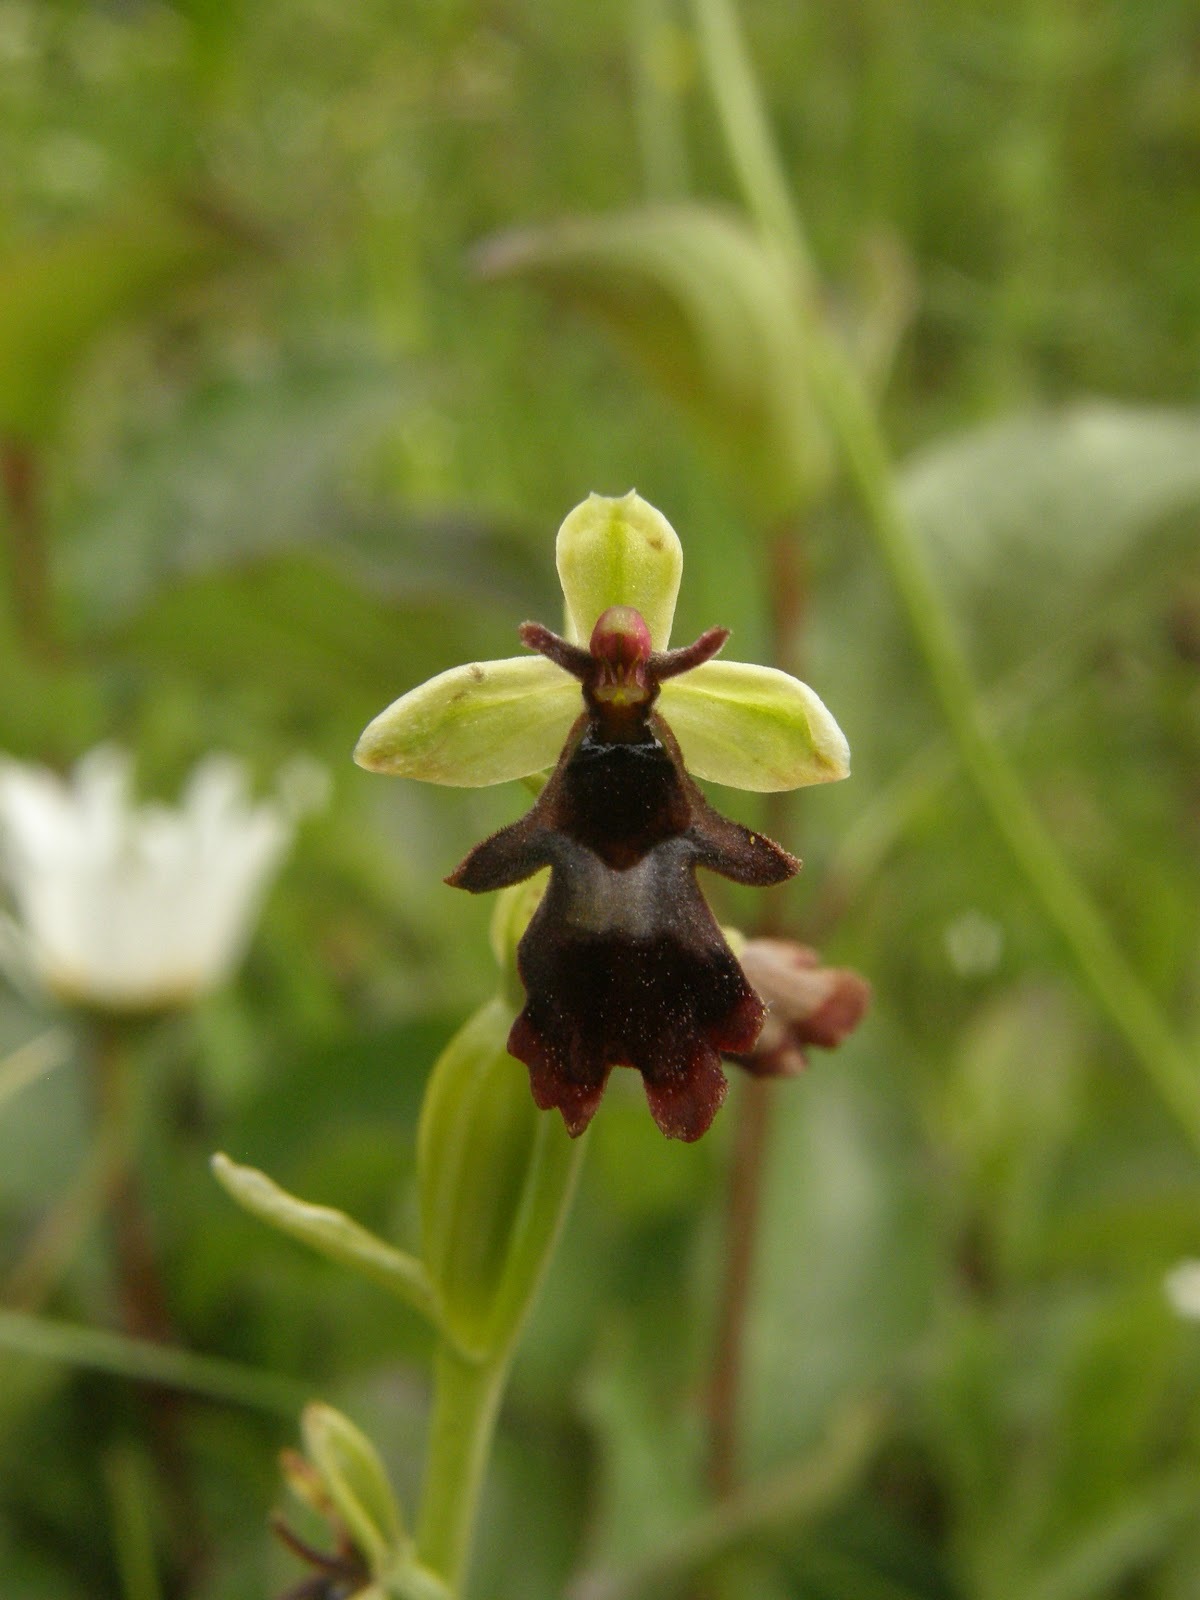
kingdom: Plantae
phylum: Tracheophyta
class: Liliopsida
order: Asparagales
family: Orchidaceae
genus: Ophrys
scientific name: Ophrys insectifera
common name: Fly orchid
